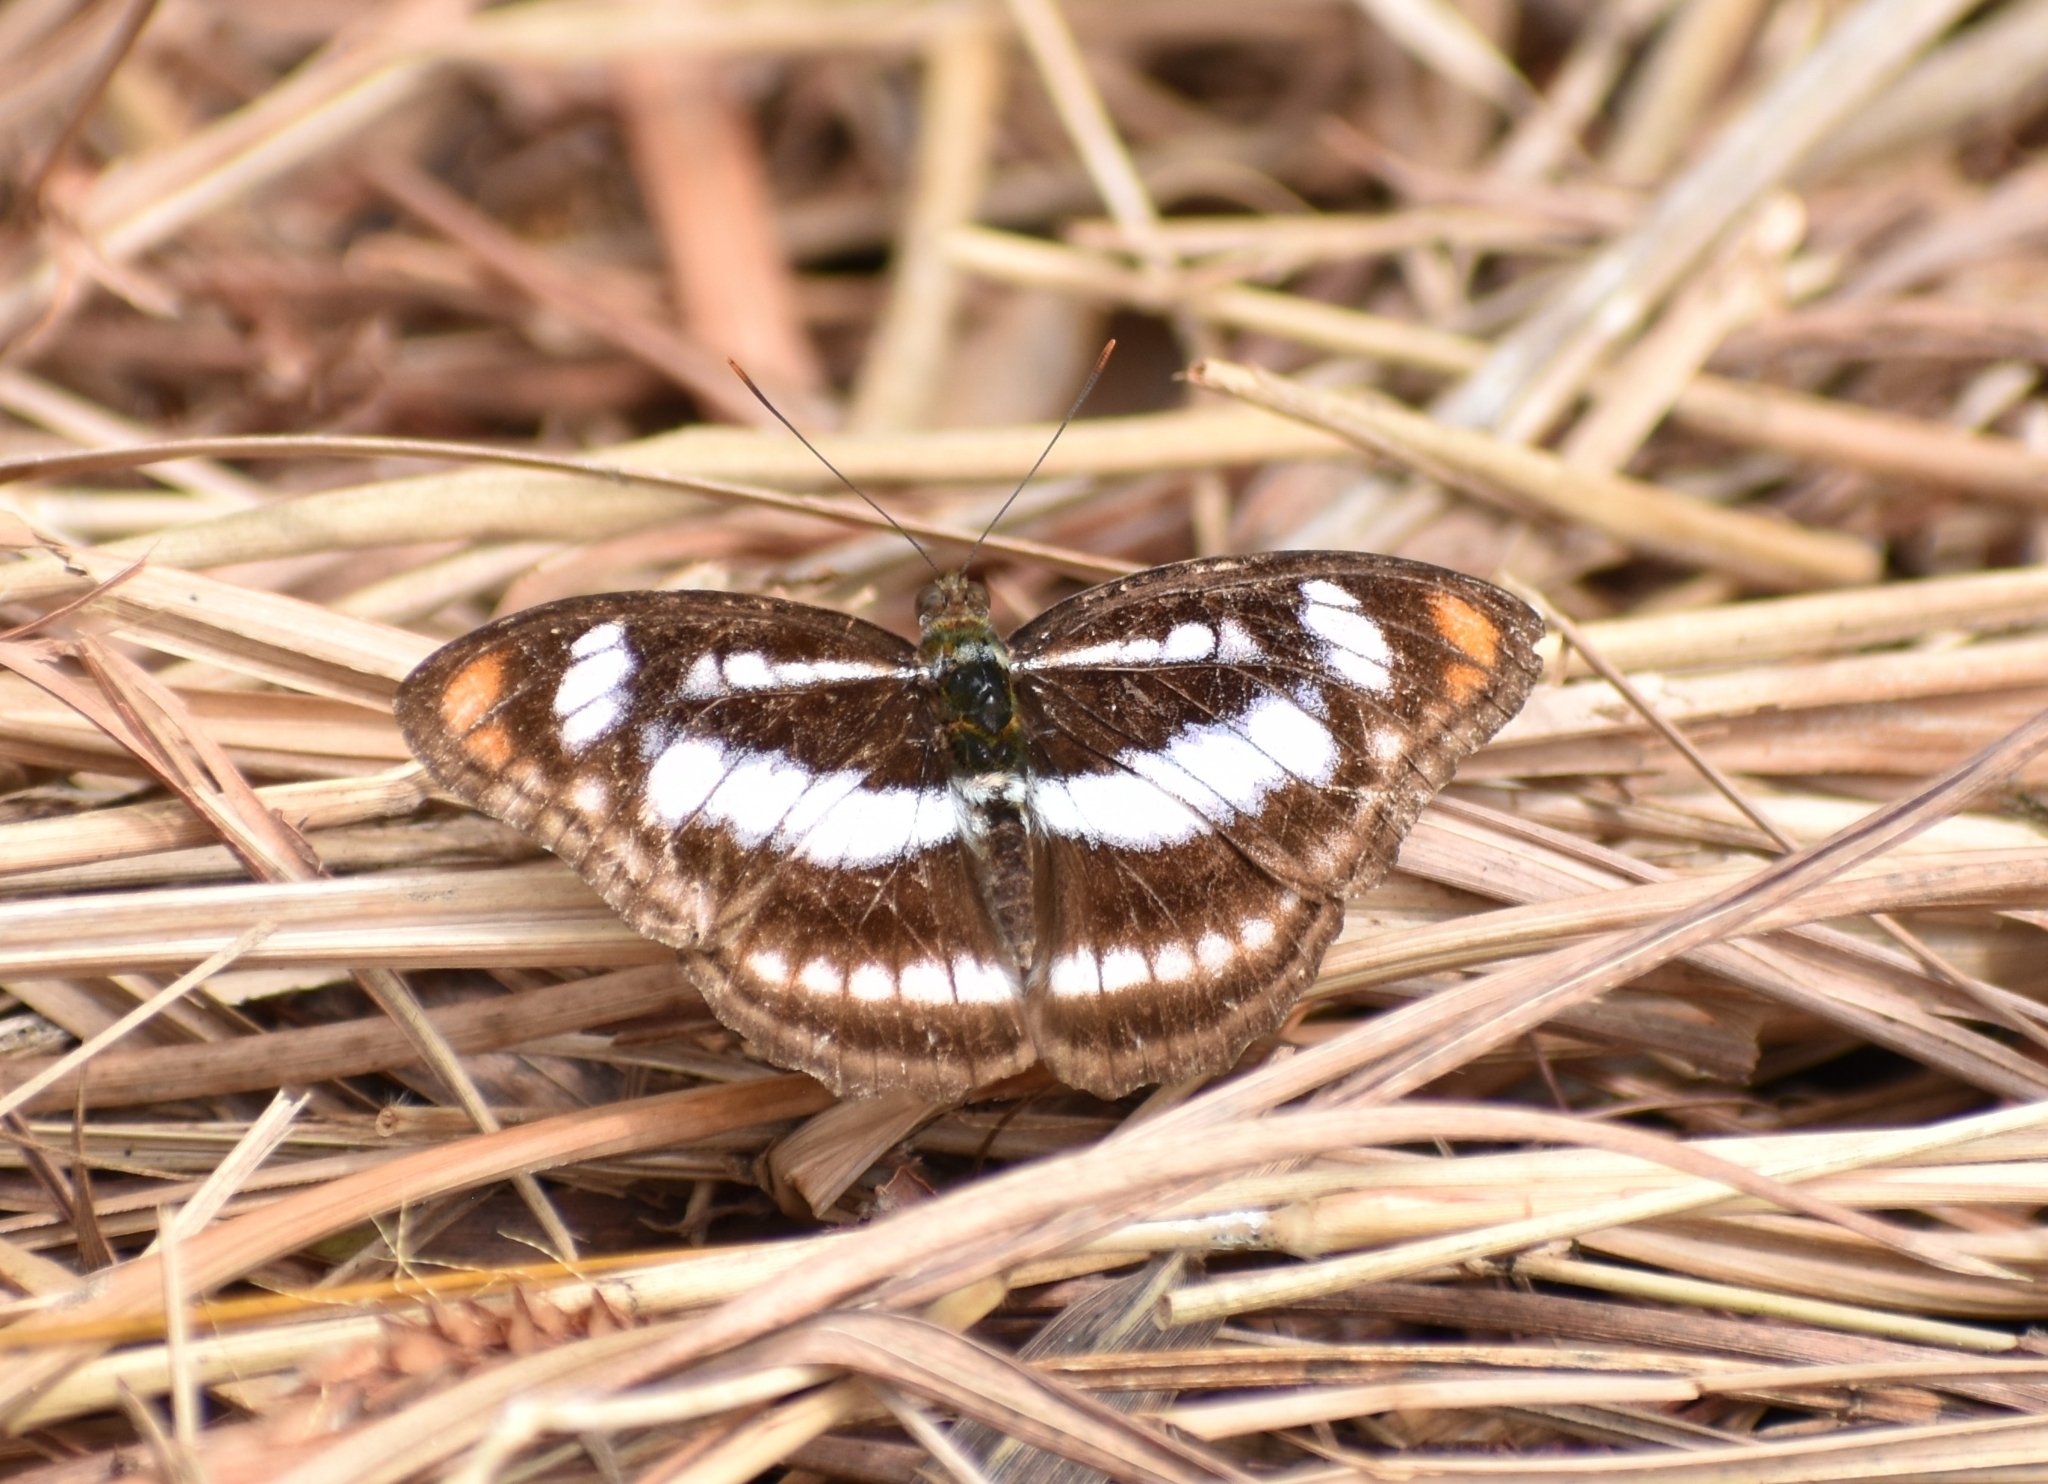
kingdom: Animalia
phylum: Arthropoda
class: Insecta
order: Lepidoptera
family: Nymphalidae
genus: Parathyma
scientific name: Parathyma nefte
